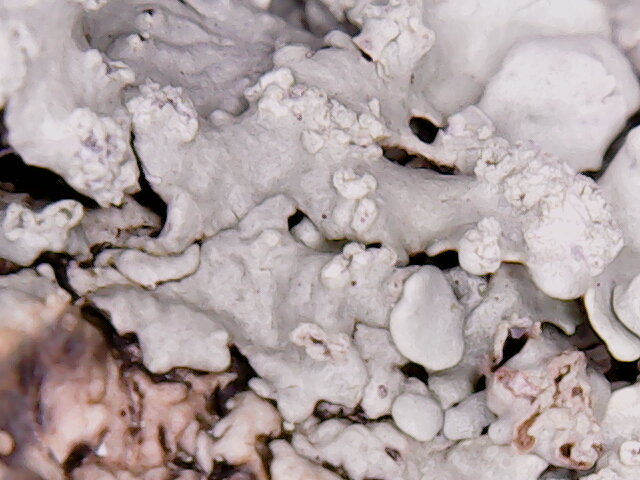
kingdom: Fungi
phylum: Ascomycota
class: Lecanoromycetes
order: Lecanorales
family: Parmeliaceae
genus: Flavoparmelia
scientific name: Flavoparmelia caperata
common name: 40-mile per hour lichen
